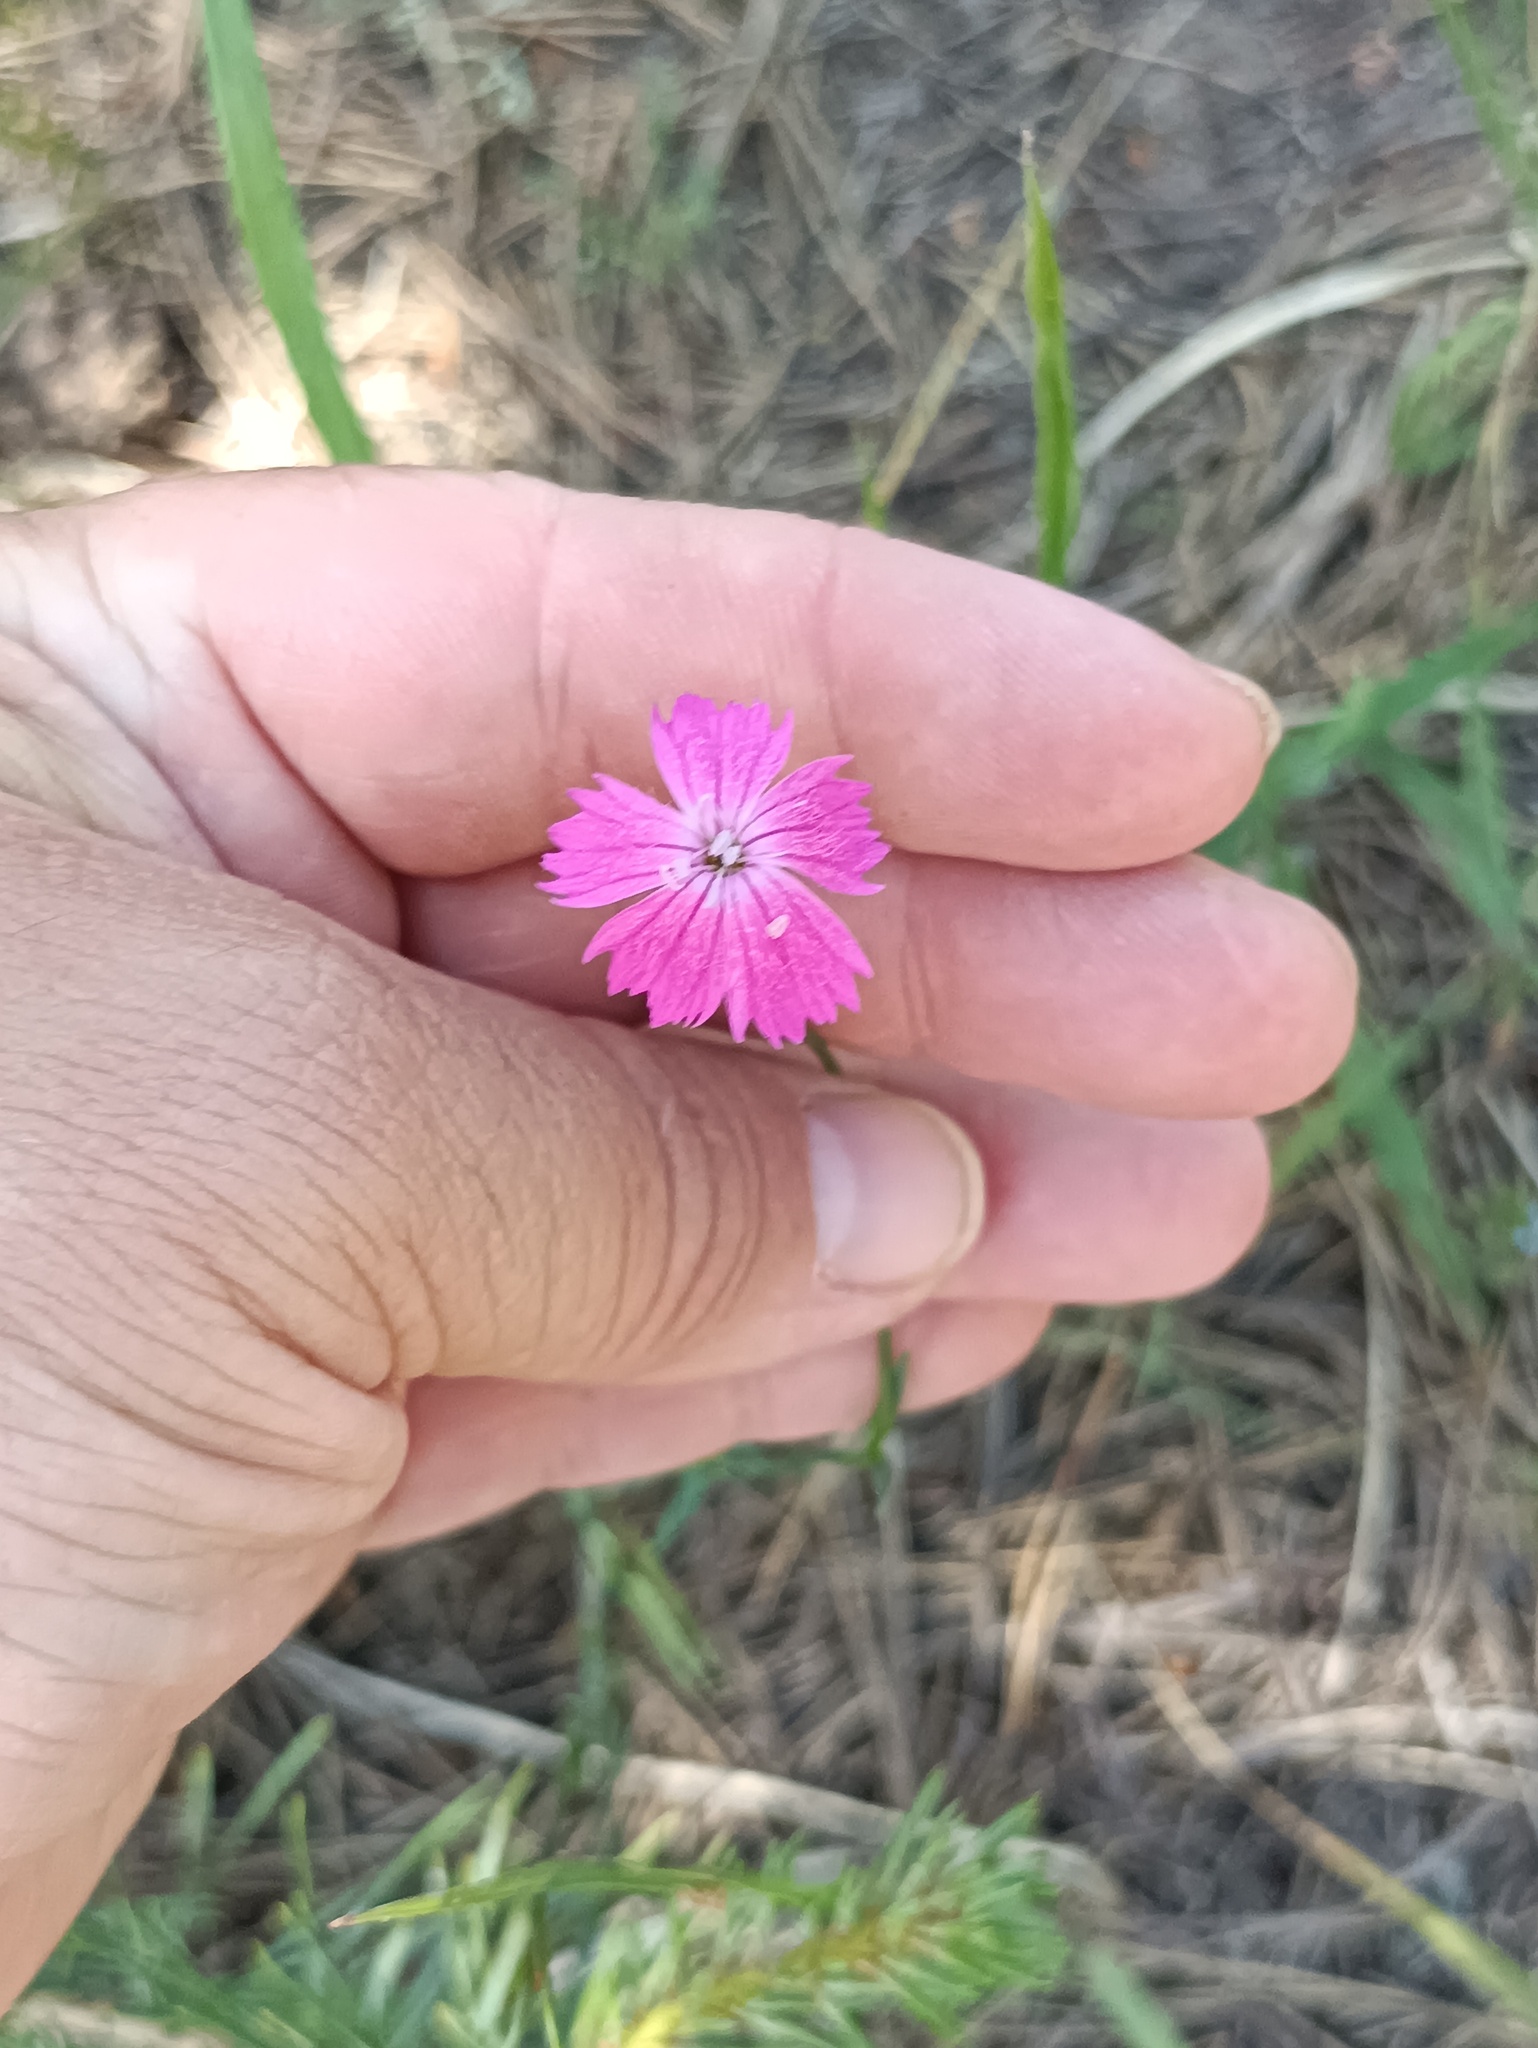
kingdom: Plantae
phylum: Tracheophyta
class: Magnoliopsida
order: Caryophyllales
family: Caryophyllaceae
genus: Dianthus
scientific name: Dianthus borbasii
